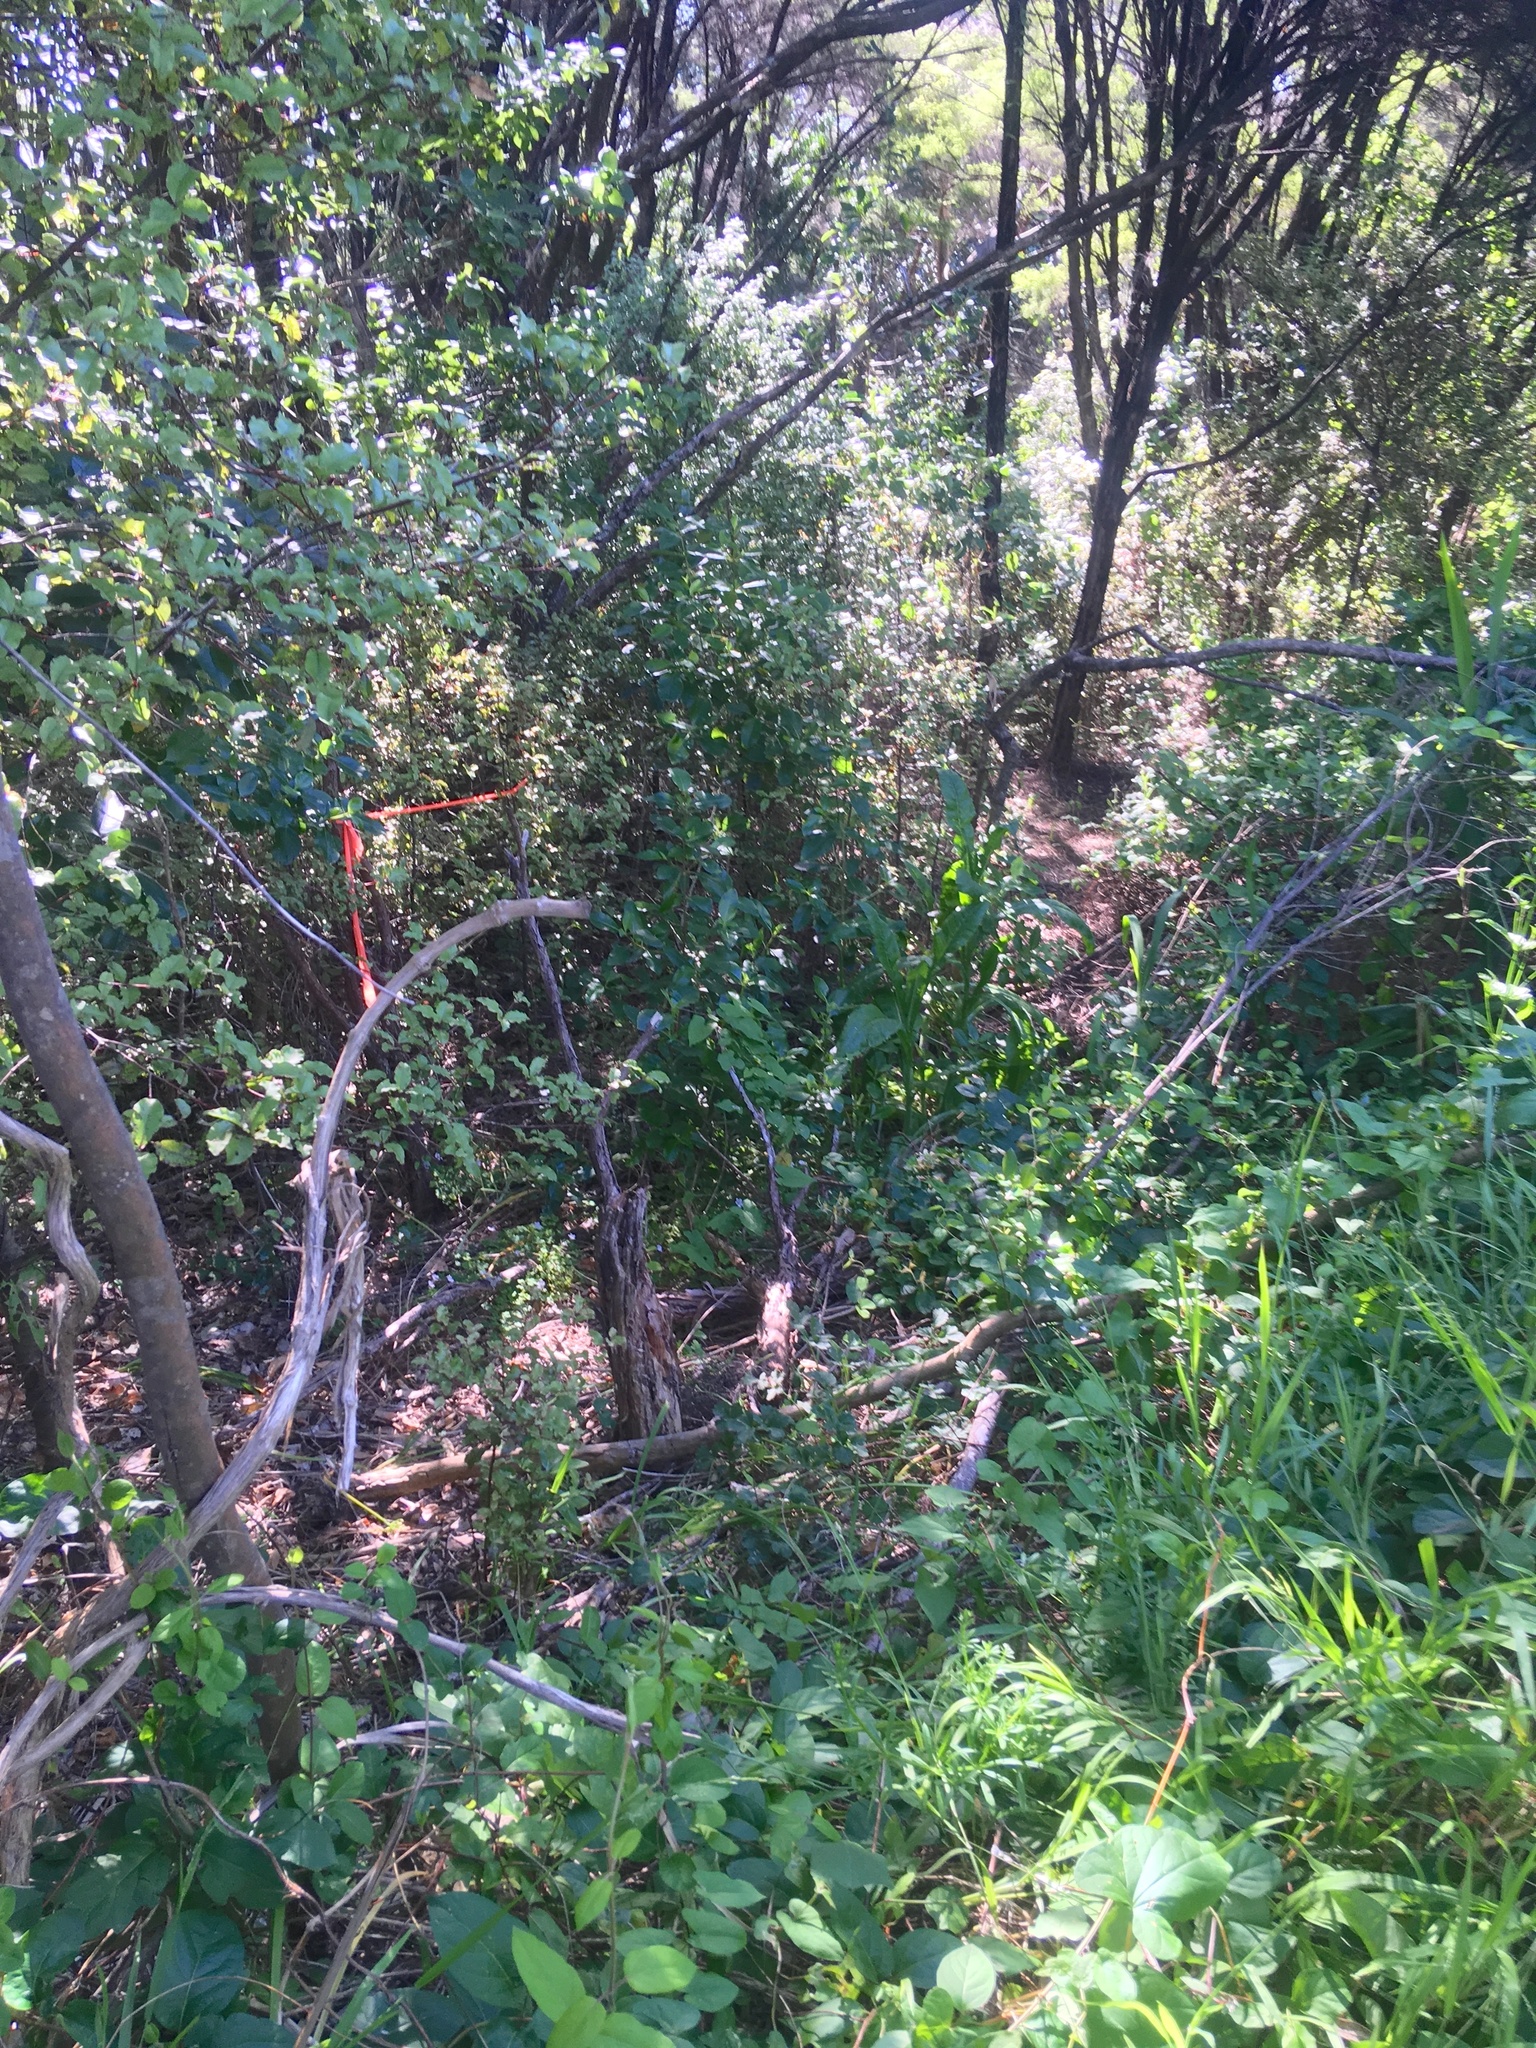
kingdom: Plantae
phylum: Tracheophyta
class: Magnoliopsida
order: Dipsacales
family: Caprifoliaceae
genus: Lonicera
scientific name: Lonicera japonica
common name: Japanese honeysuckle
